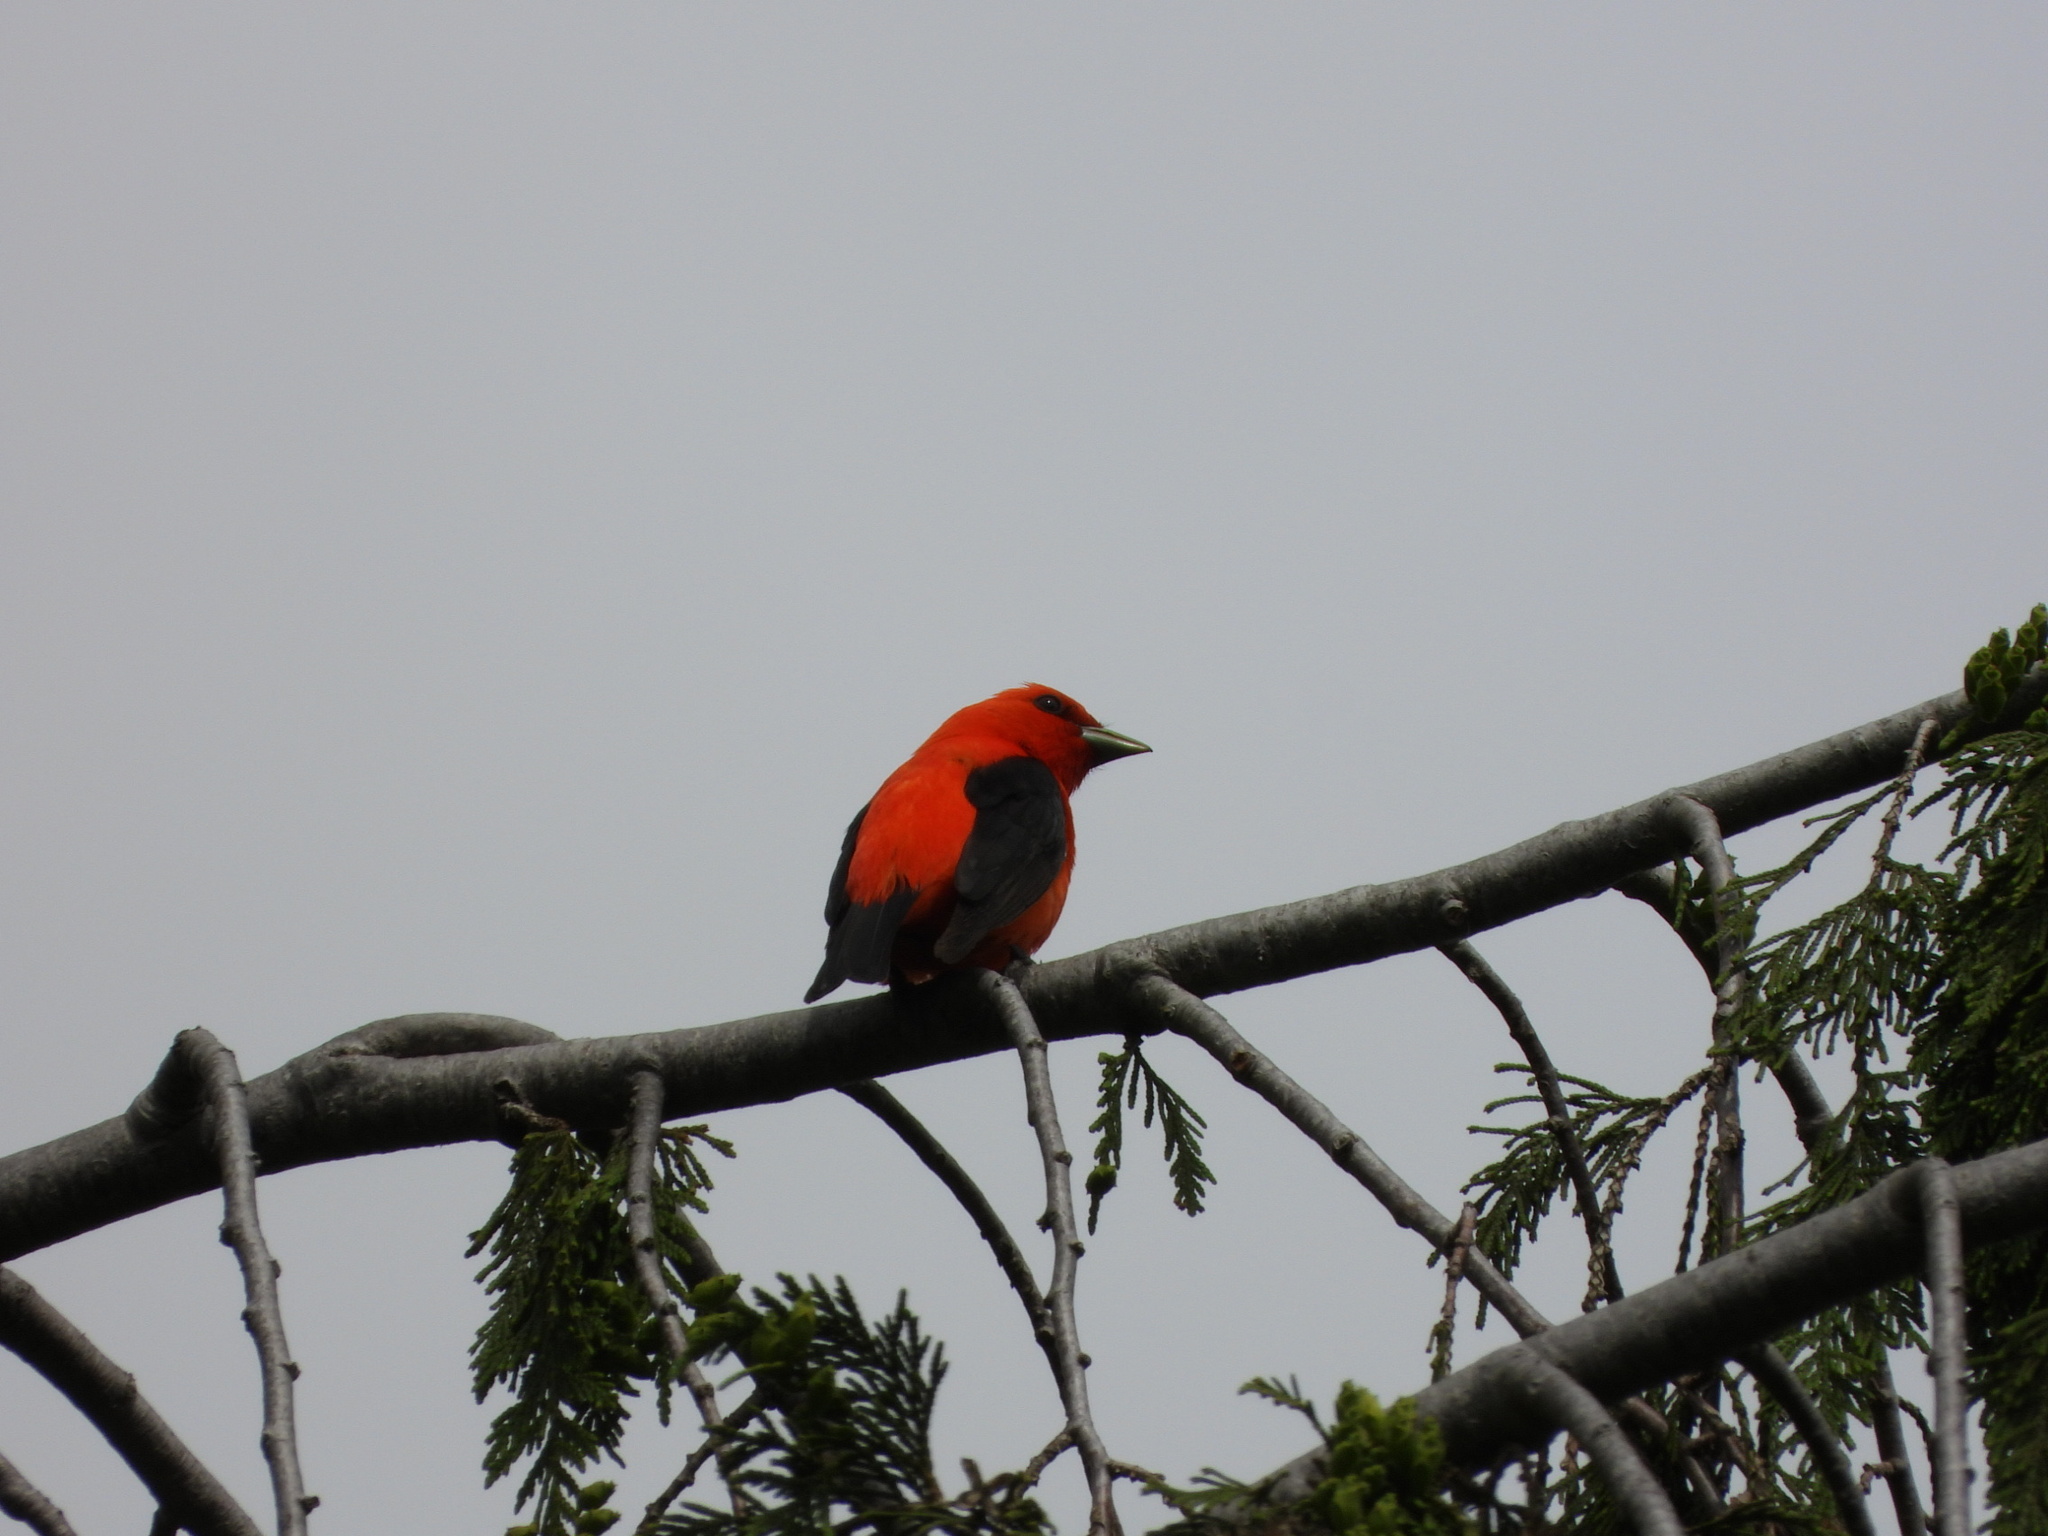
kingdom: Animalia
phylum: Chordata
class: Aves
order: Passeriformes
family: Cardinalidae
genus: Piranga
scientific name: Piranga olivacea
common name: Scarlet tanager
